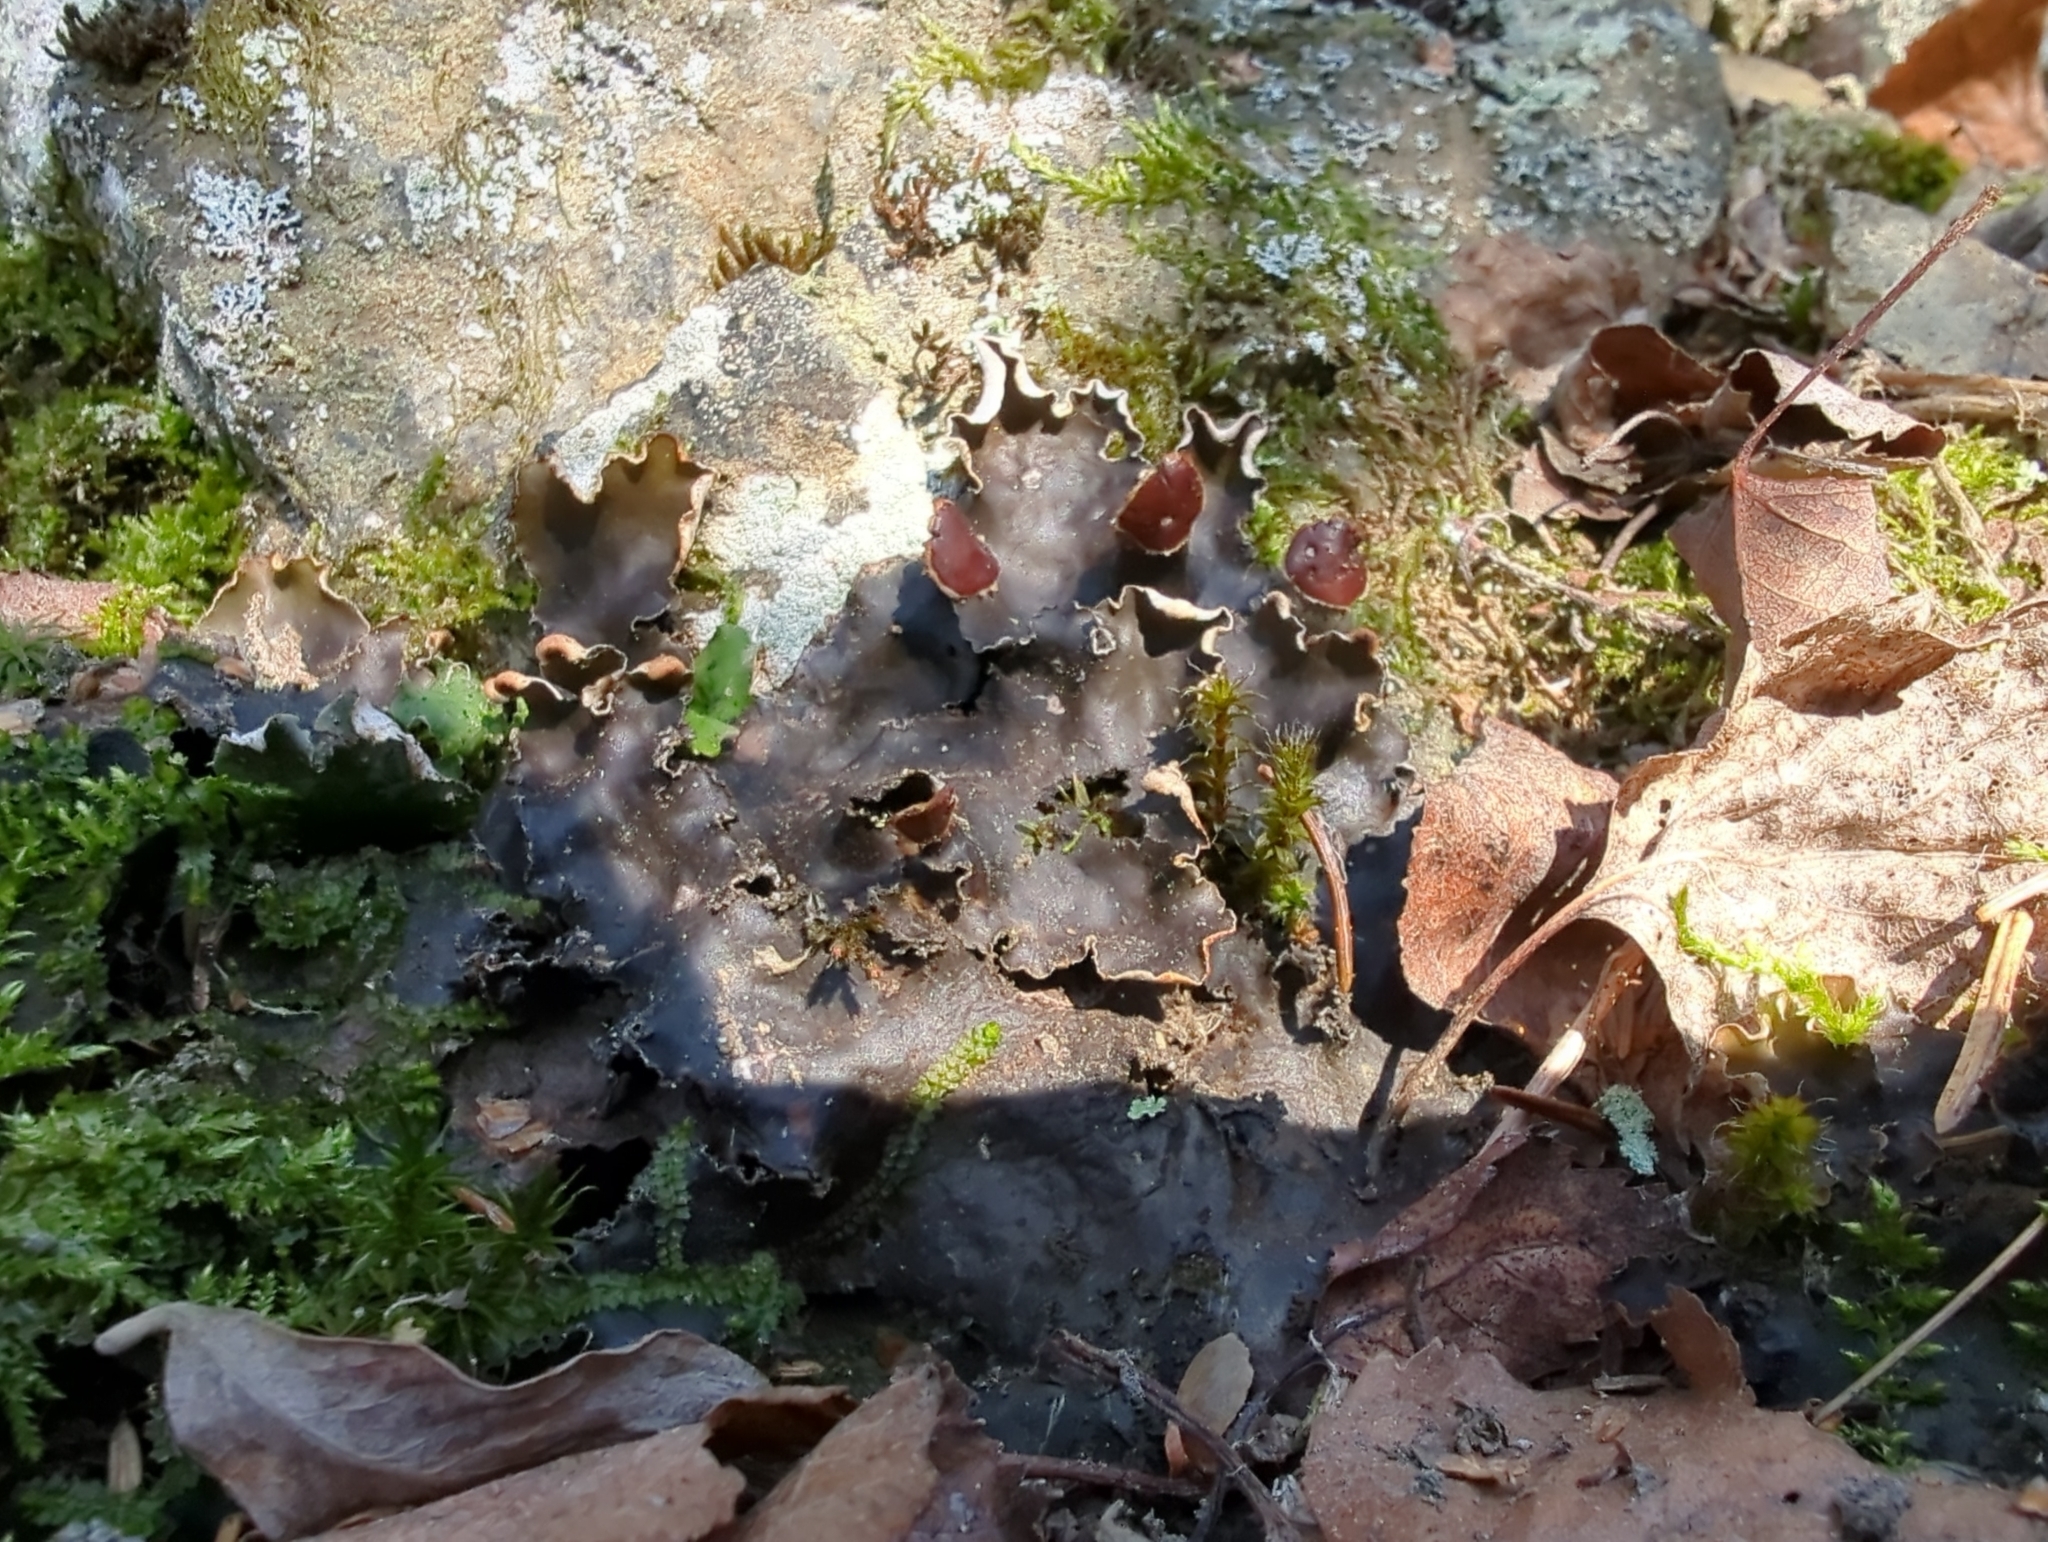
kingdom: Fungi
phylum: Ascomycota
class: Lecanoromycetes
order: Peltigerales
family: Peltigeraceae
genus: Peltigera
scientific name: Peltigera horizontalis
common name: Flat fruited pelt
